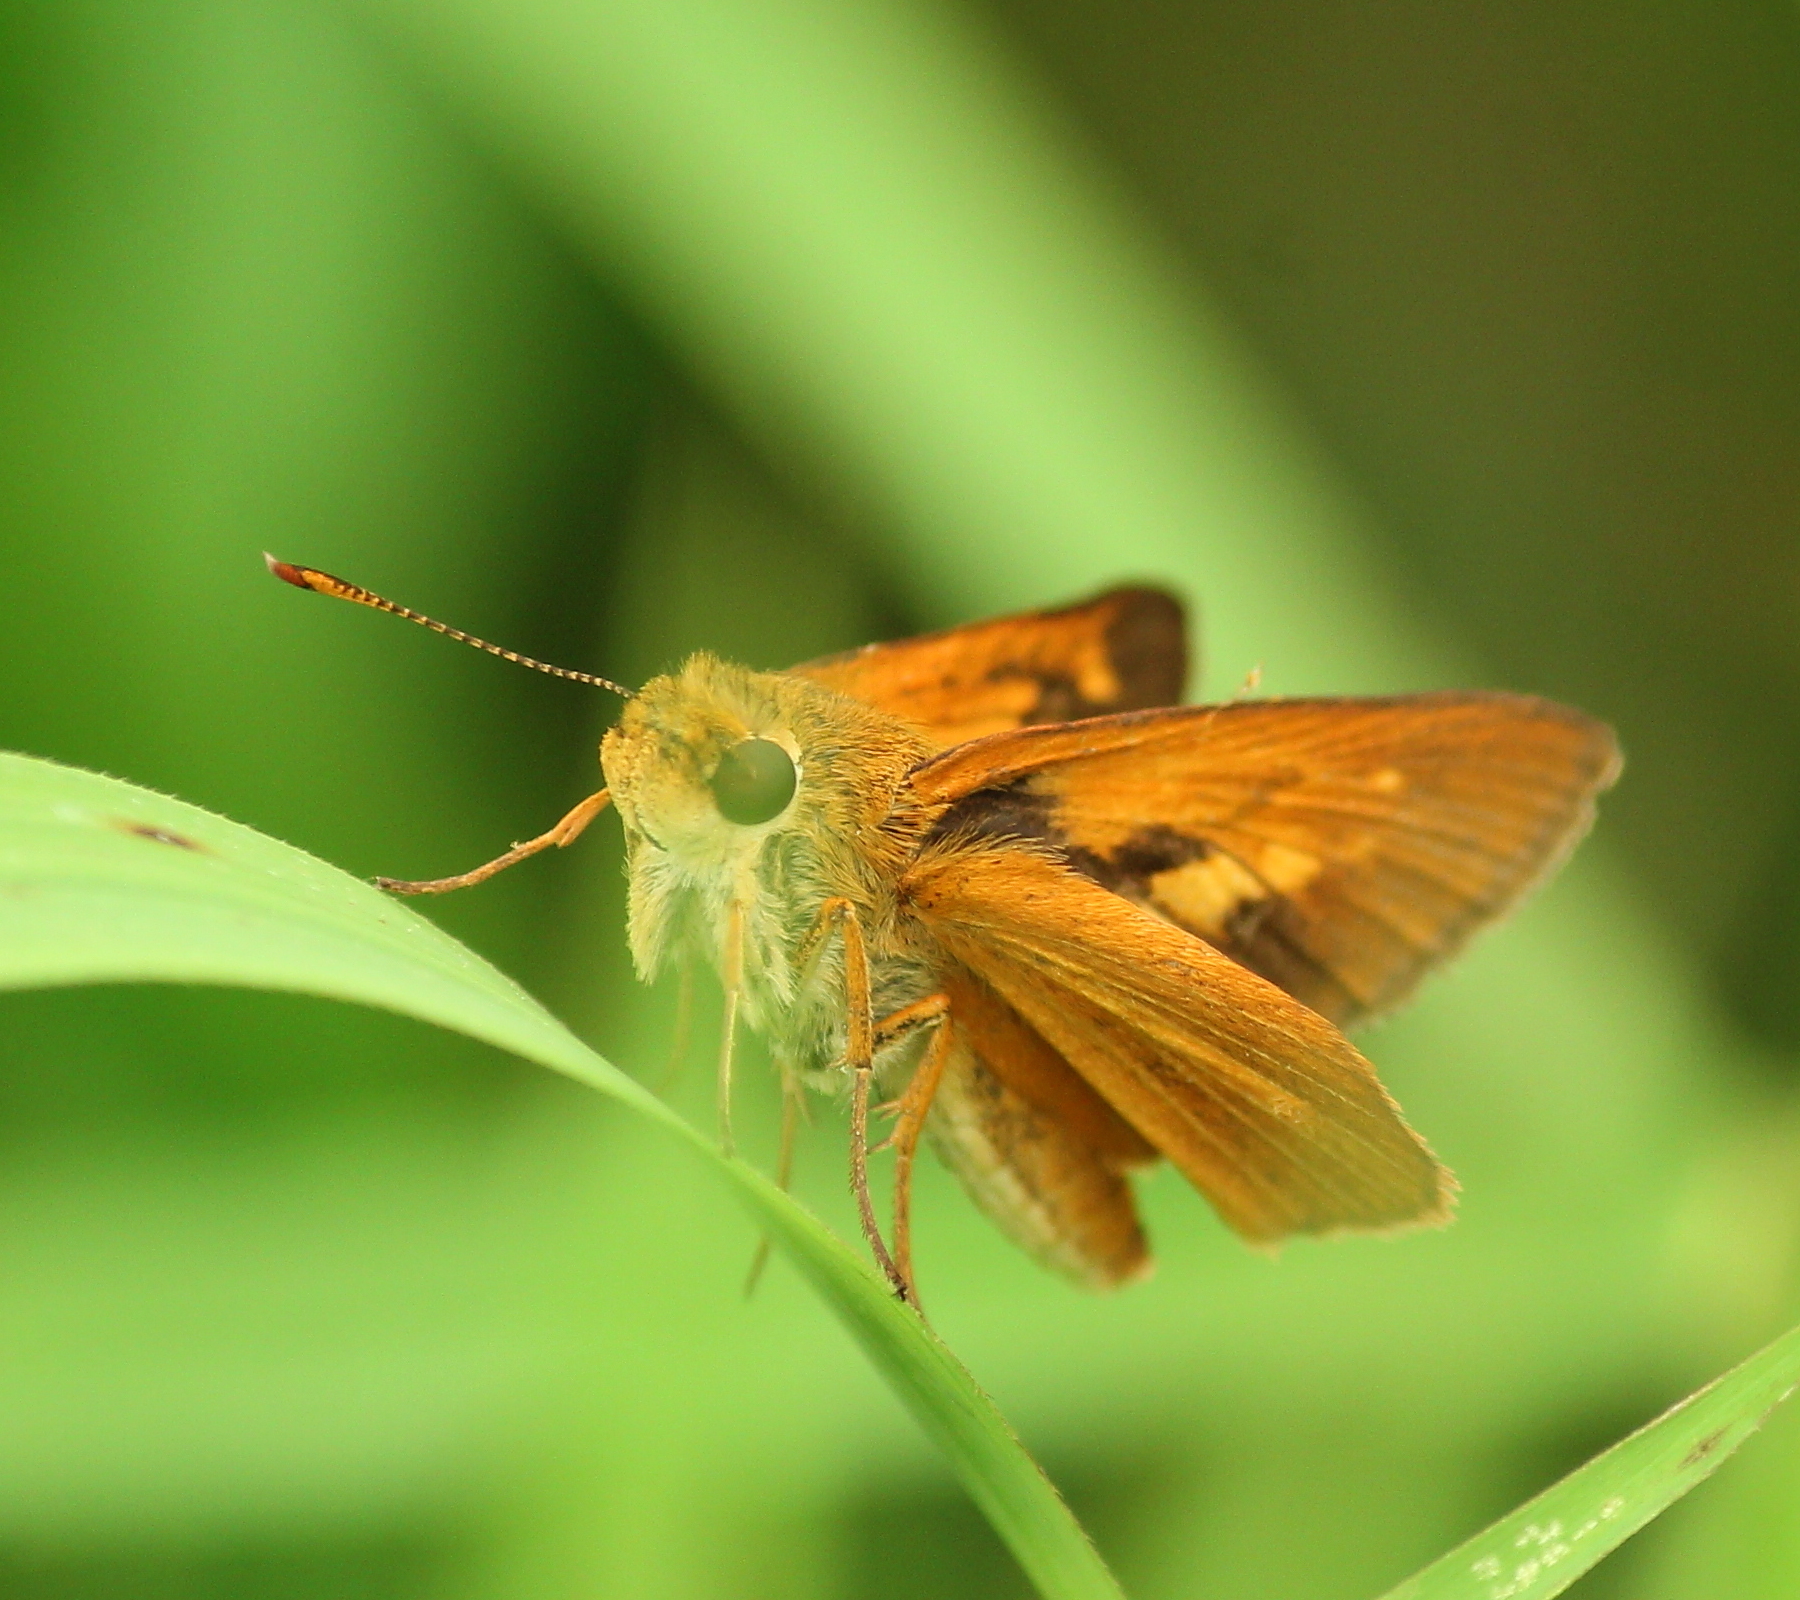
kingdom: Animalia
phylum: Arthropoda
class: Insecta
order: Lepidoptera
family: Hesperiidae
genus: Atalopedes
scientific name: Atalopedes
